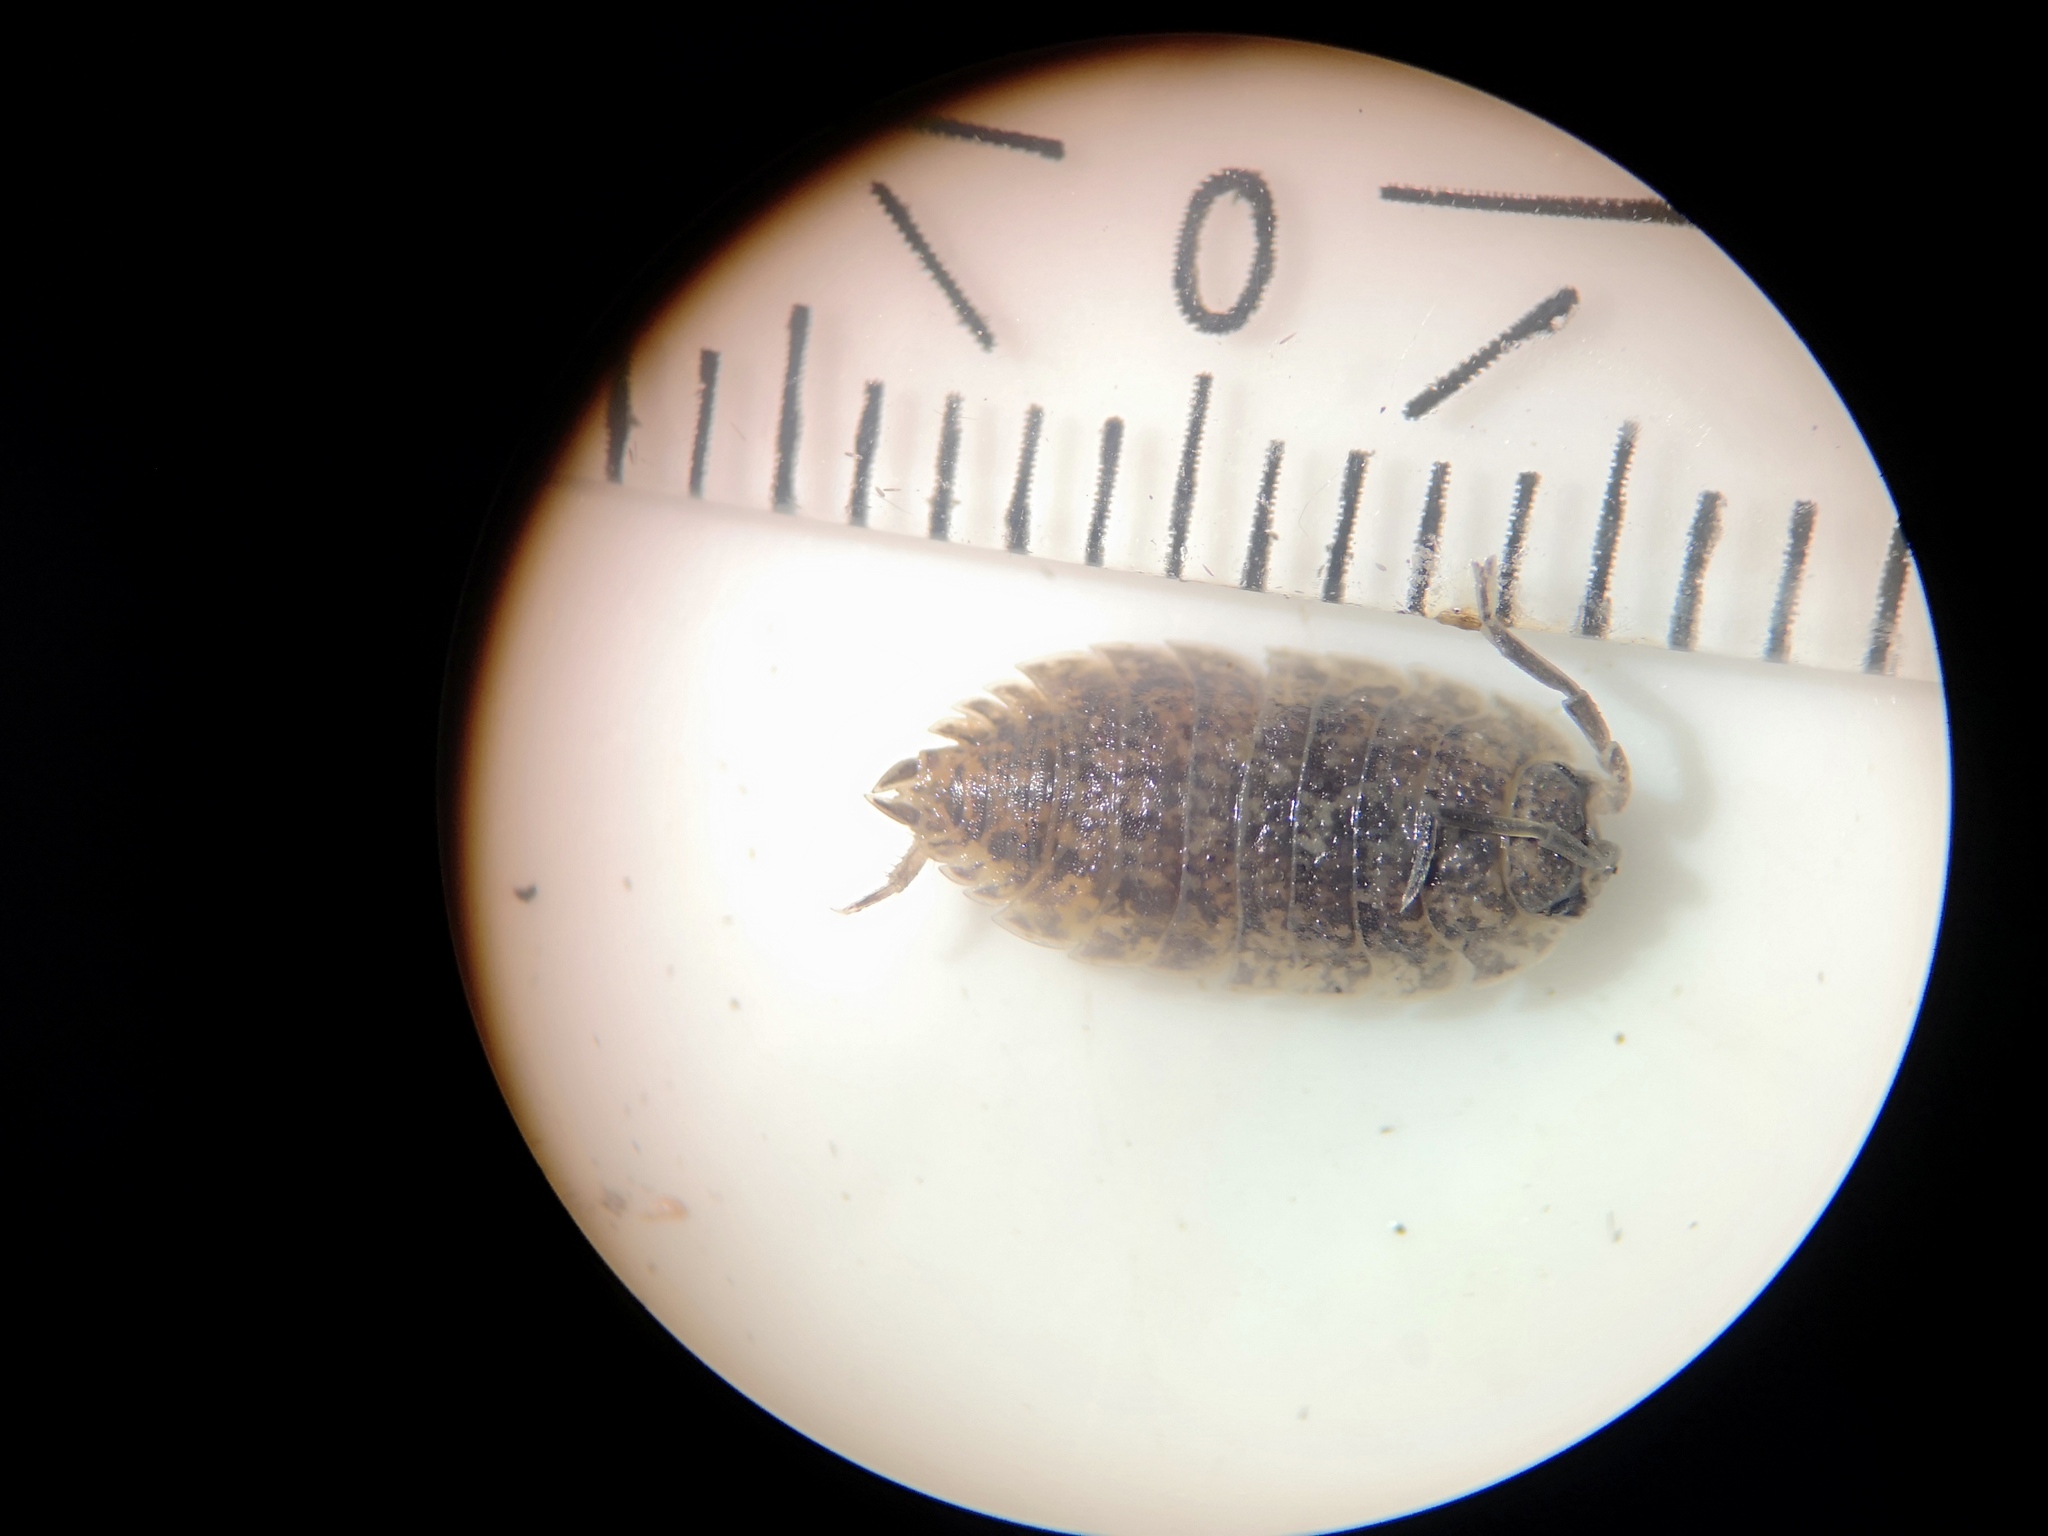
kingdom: Animalia
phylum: Arthropoda
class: Malacostraca
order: Isopoda
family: Porcellionidae
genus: Porcellio
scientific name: Porcellio scaber
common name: Common rough woodlouse
